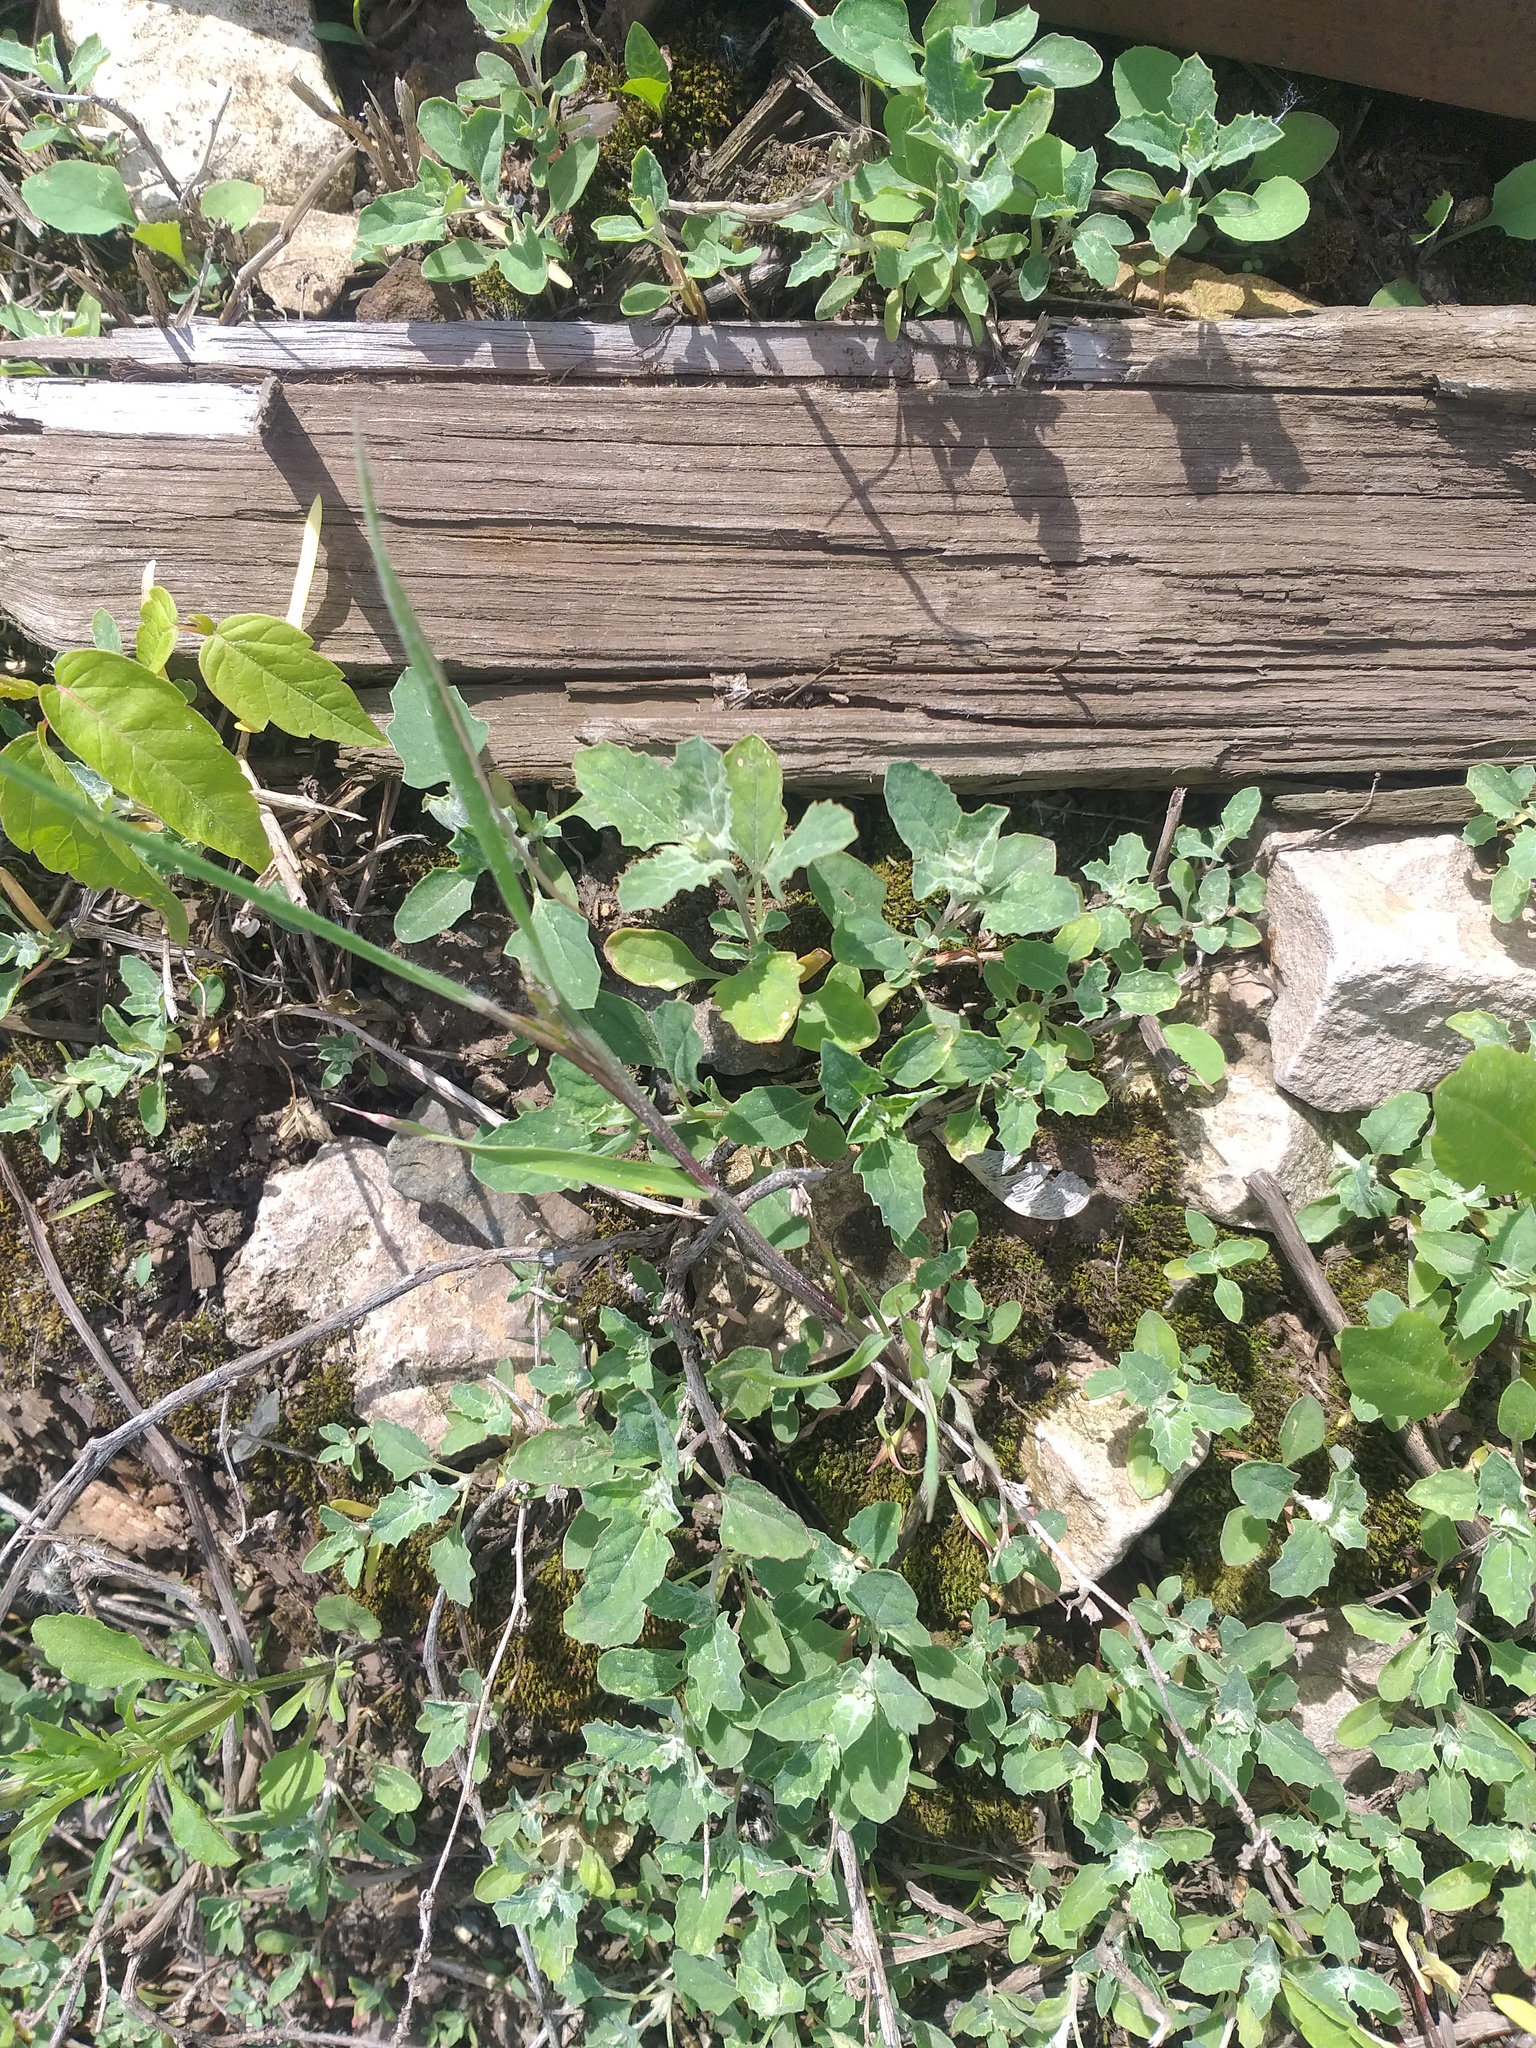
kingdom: Plantae
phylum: Tracheophyta
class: Magnoliopsida
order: Caryophyllales
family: Amaranthaceae
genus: Atriplex
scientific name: Atriplex tatarica
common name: Tatarian orache
